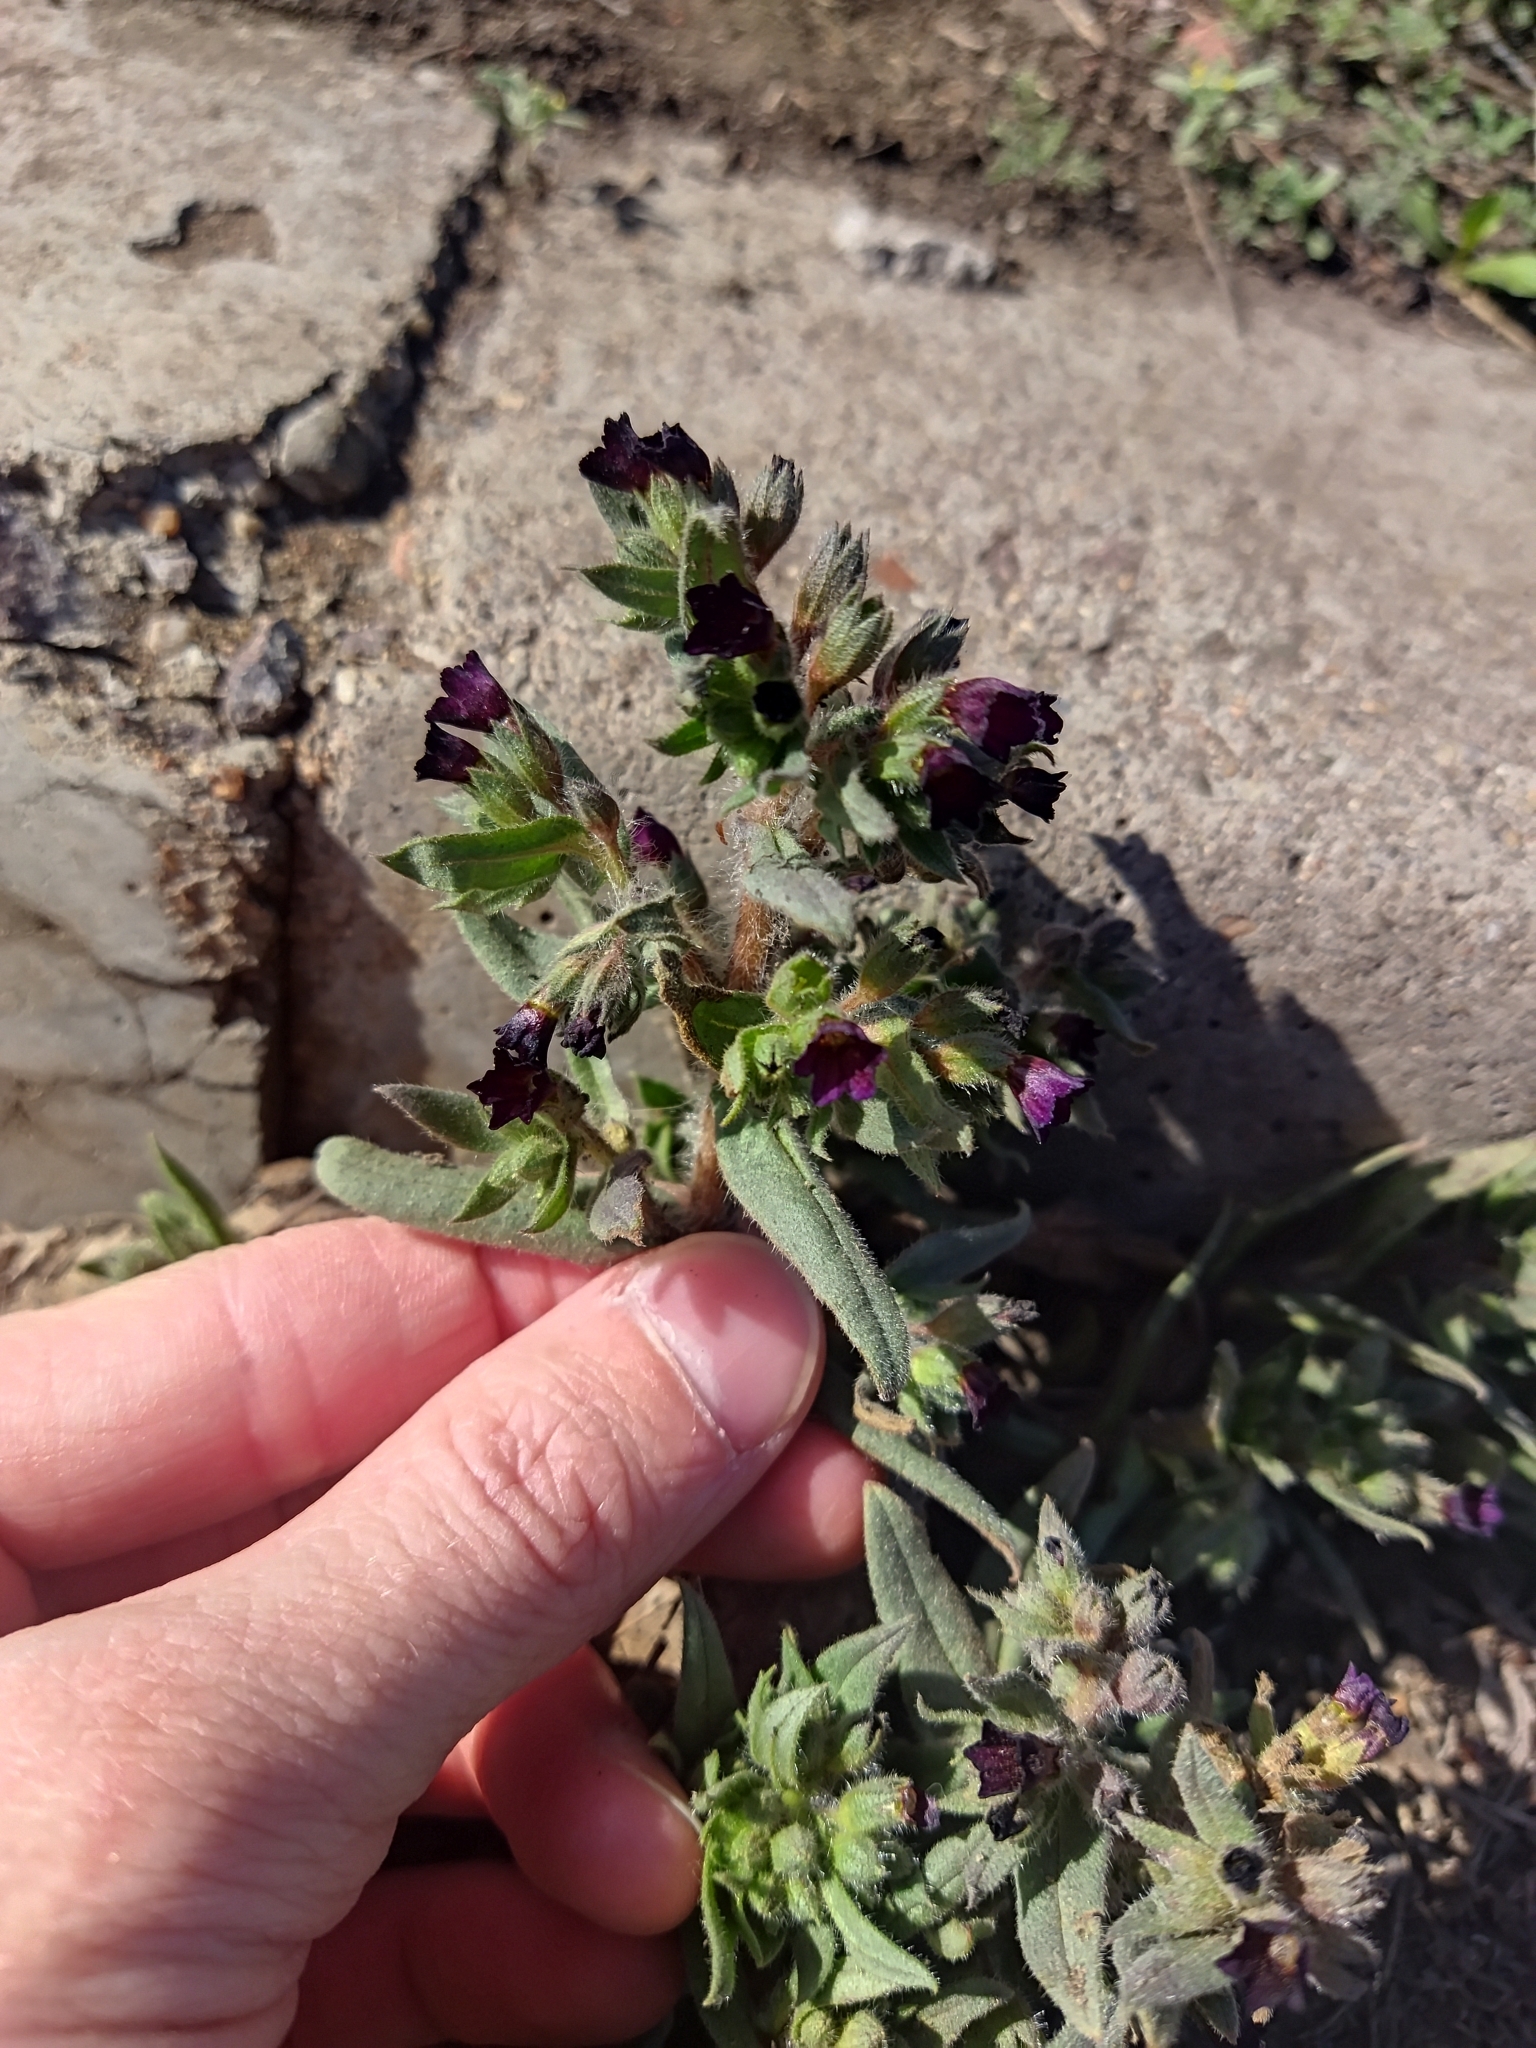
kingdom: Plantae
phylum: Tracheophyta
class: Magnoliopsida
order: Boraginales
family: Boraginaceae
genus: Nonea
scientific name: Nonea pulla
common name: Brown nonea
